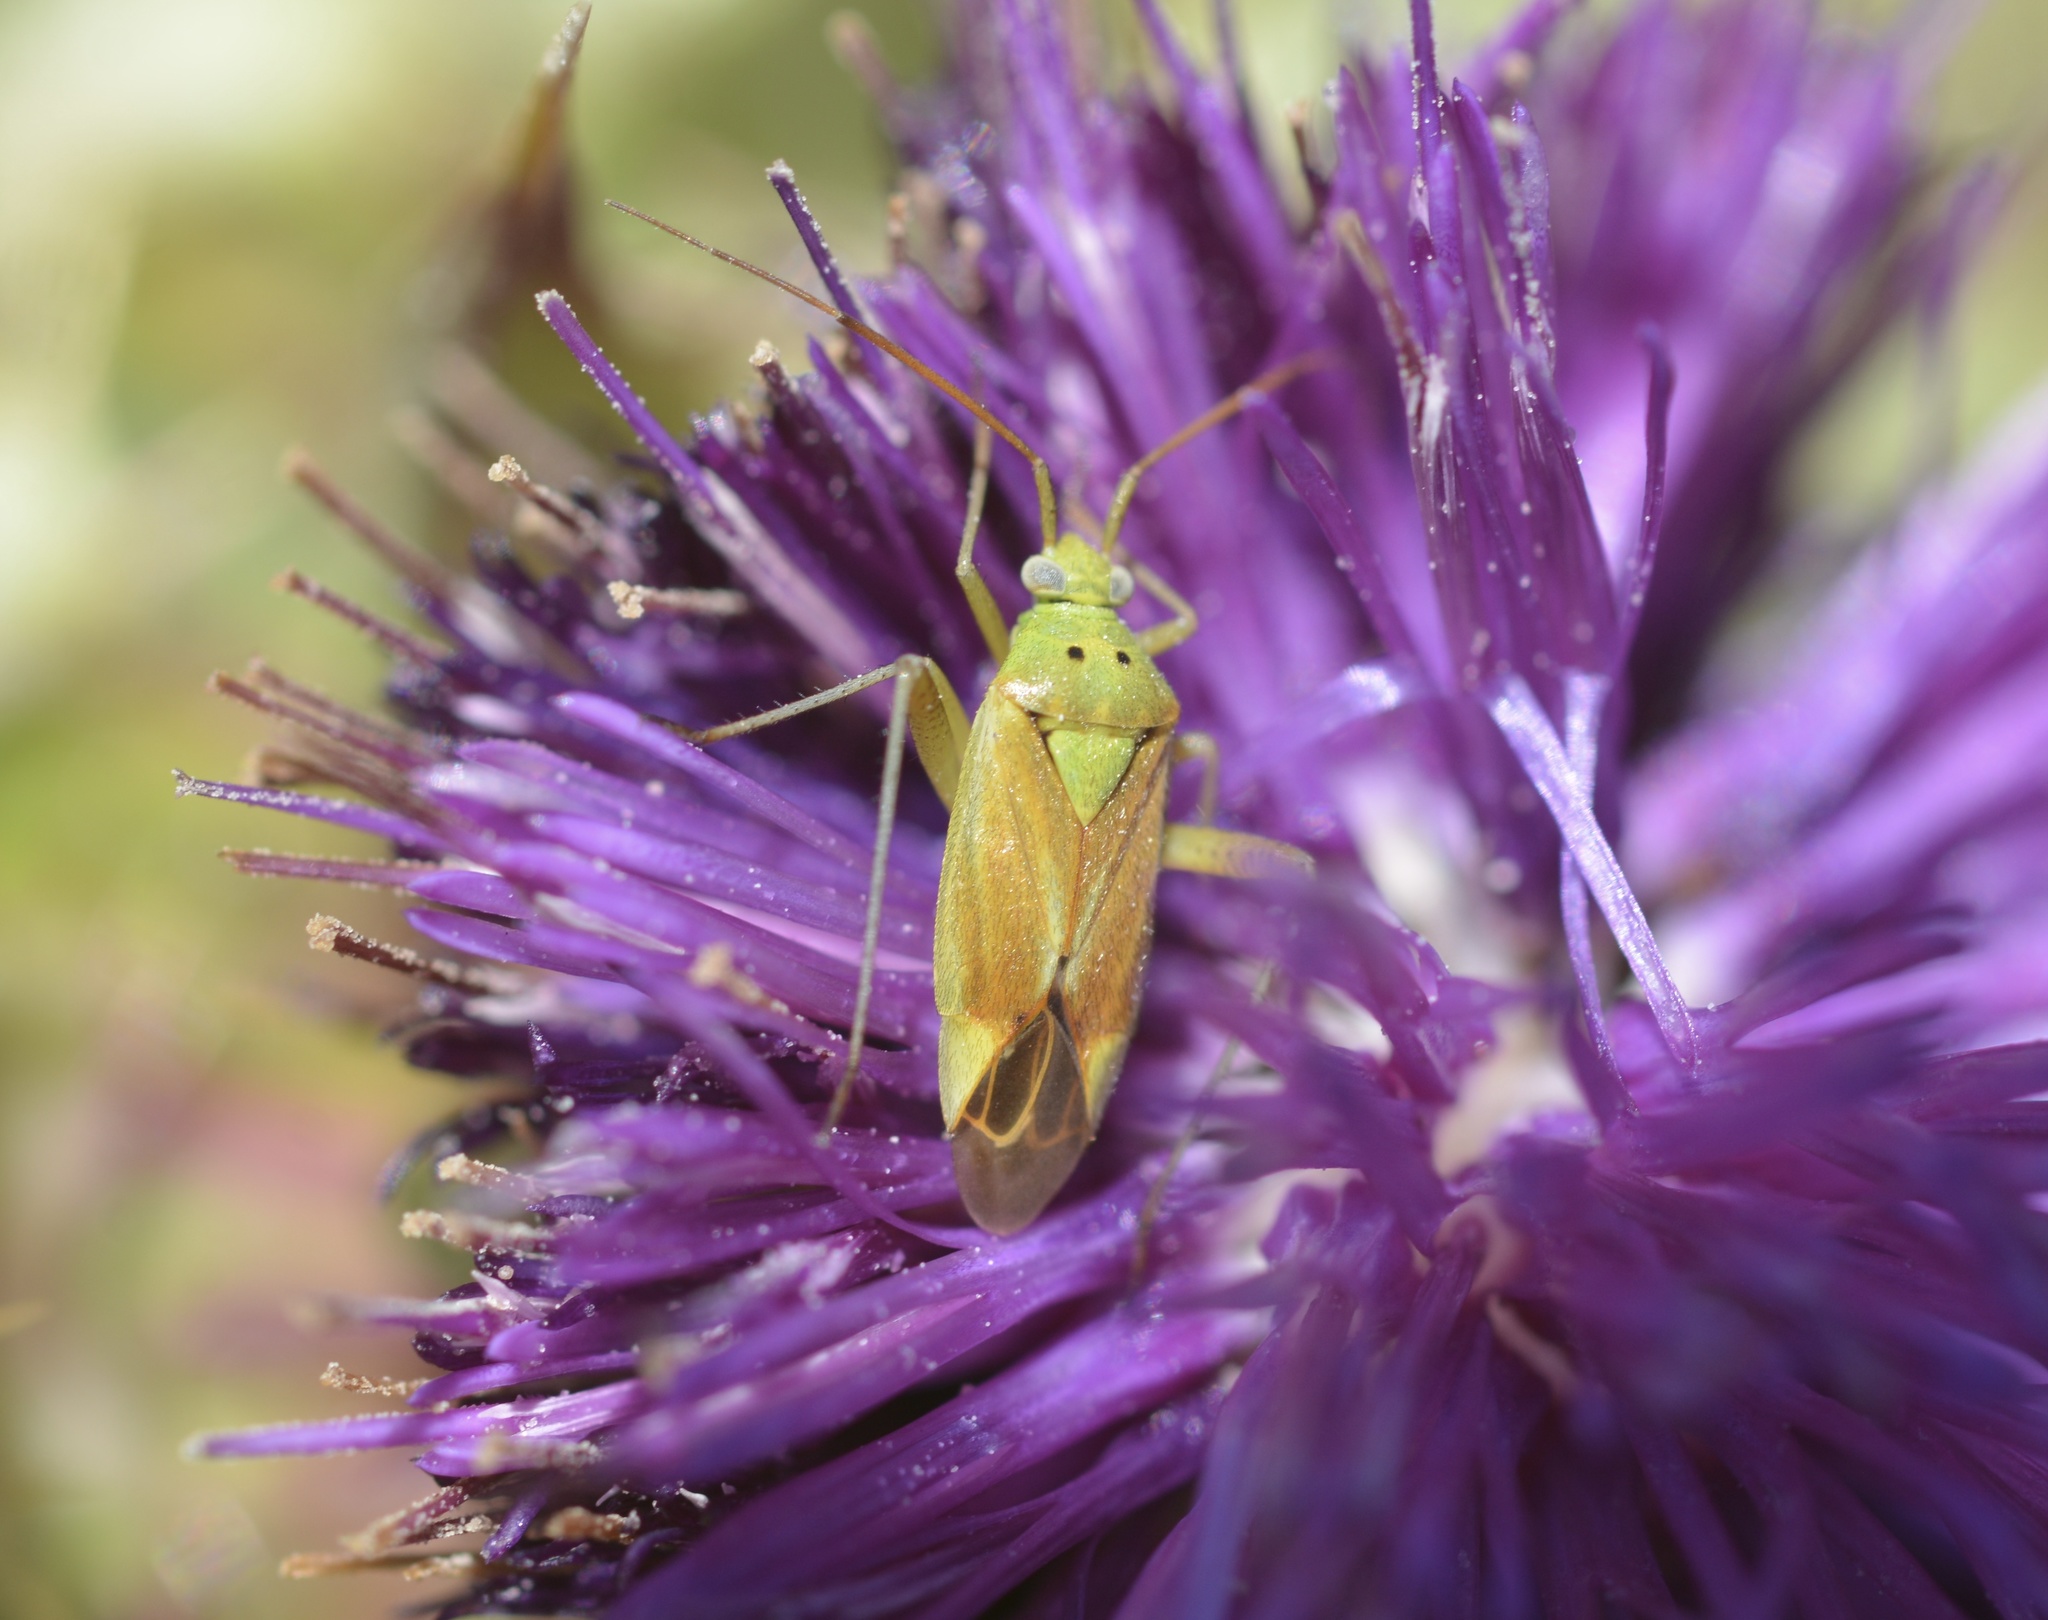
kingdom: Animalia
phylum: Arthropoda
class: Insecta
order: Hemiptera
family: Miridae
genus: Closterotomus
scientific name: Closterotomus norvegicus
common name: Plant bug
